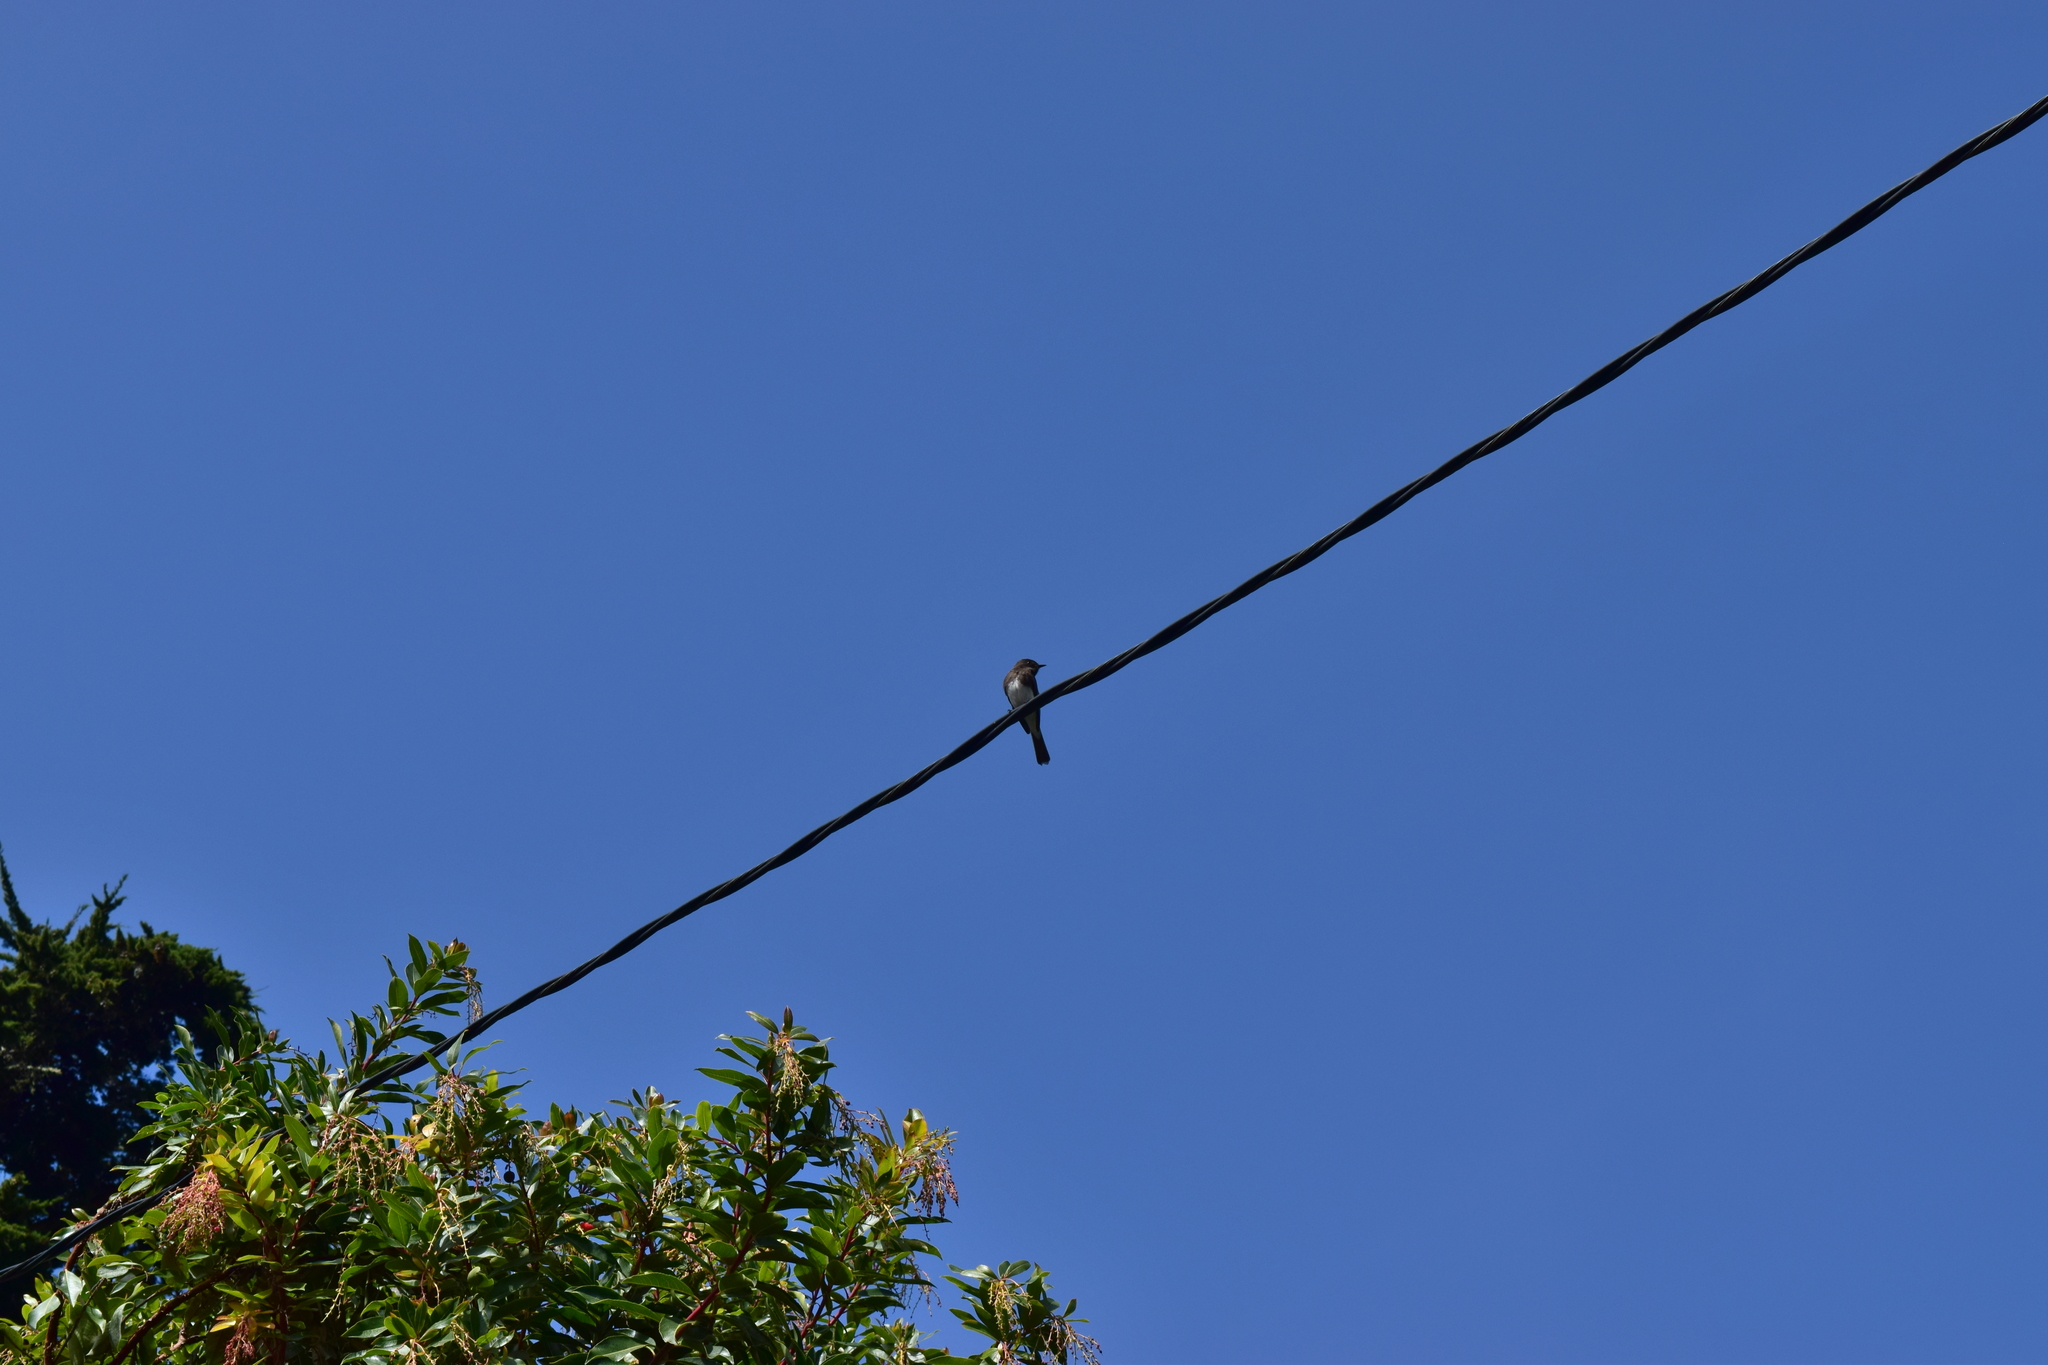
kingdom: Animalia
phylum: Chordata
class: Aves
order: Passeriformes
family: Tyrannidae
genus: Sayornis
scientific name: Sayornis nigricans
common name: Black phoebe
